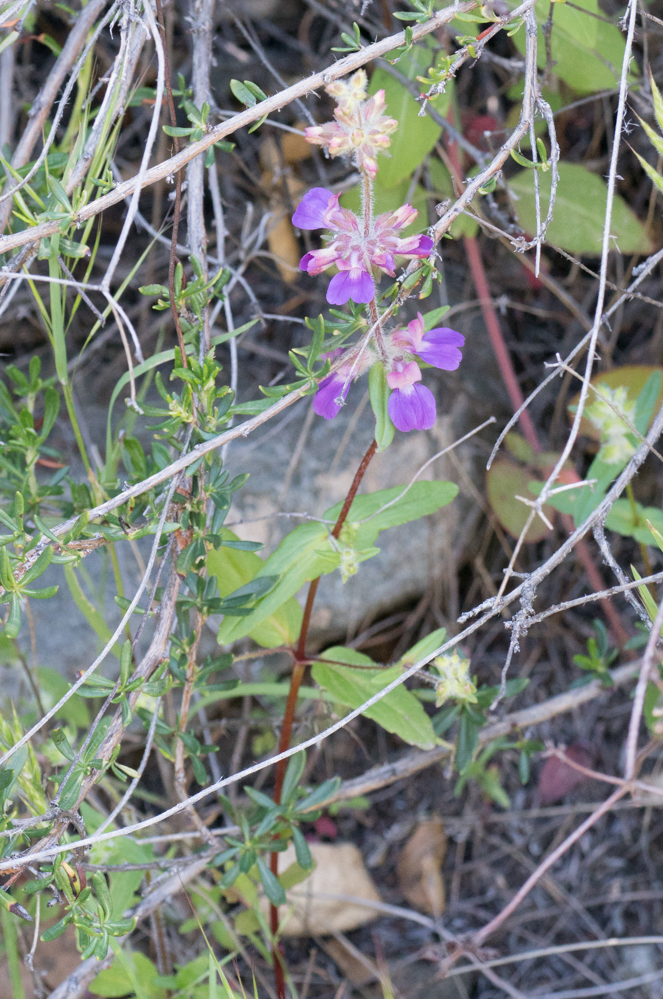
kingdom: Plantae
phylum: Tracheophyta
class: Magnoliopsida
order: Lamiales
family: Plantaginaceae
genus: Collinsia
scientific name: Collinsia heterophylla
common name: Chinese-houses
